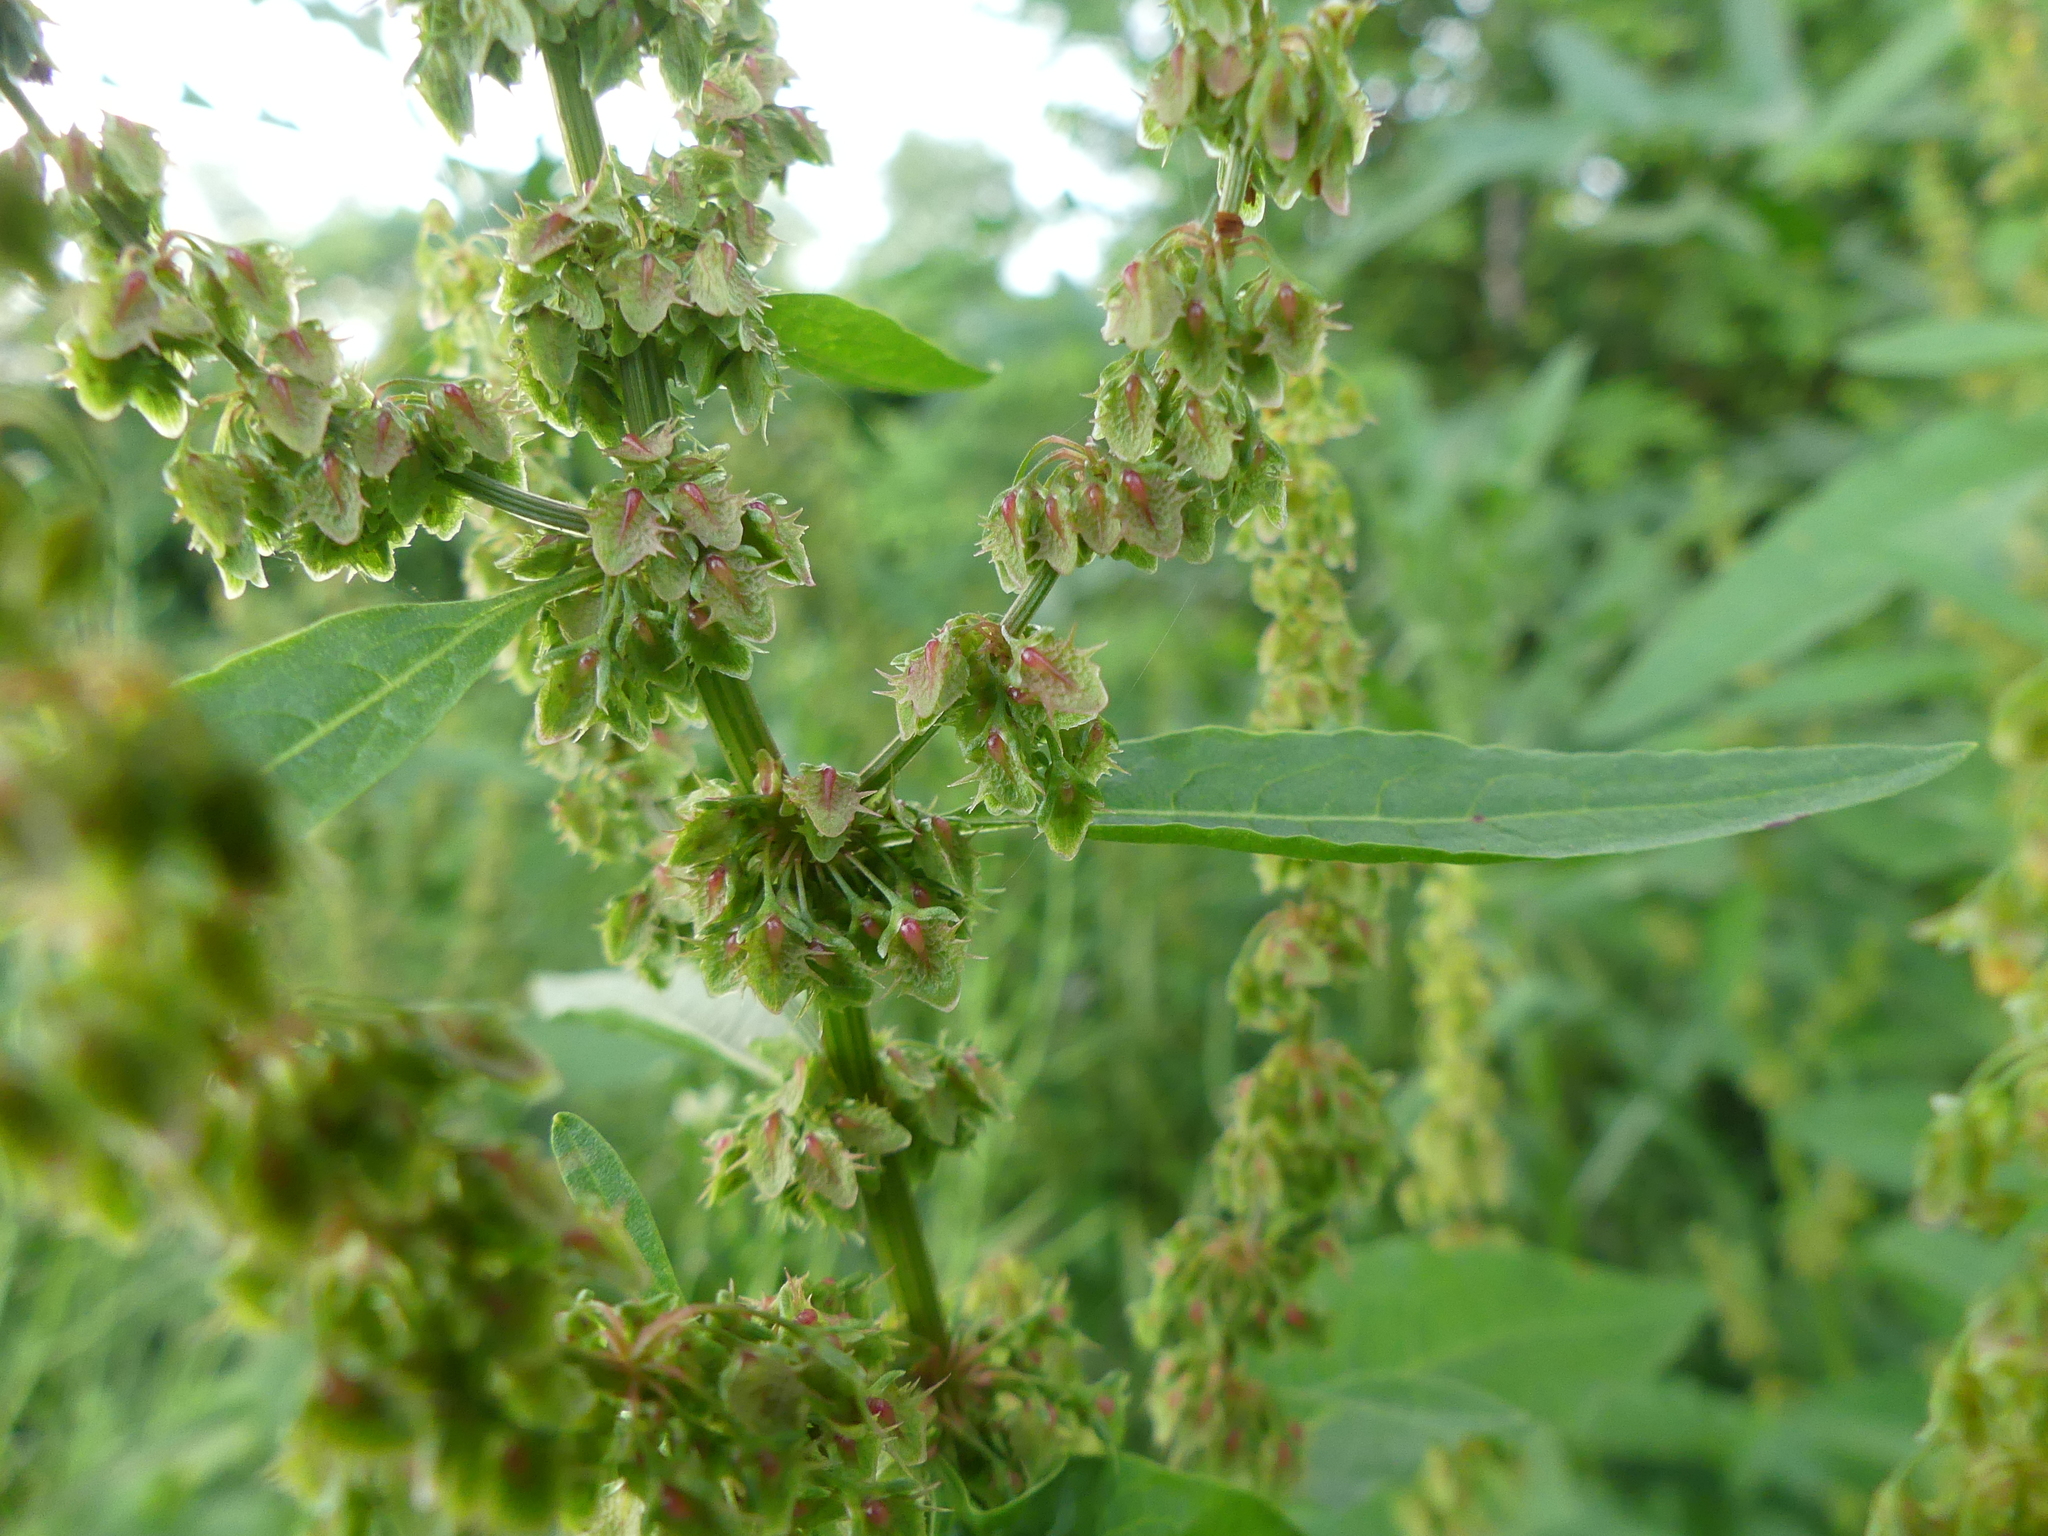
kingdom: Plantae
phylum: Tracheophyta
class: Magnoliopsida
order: Caryophyllales
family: Polygonaceae
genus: Rumex
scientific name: Rumex obtusifolius
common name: Bitter dock
